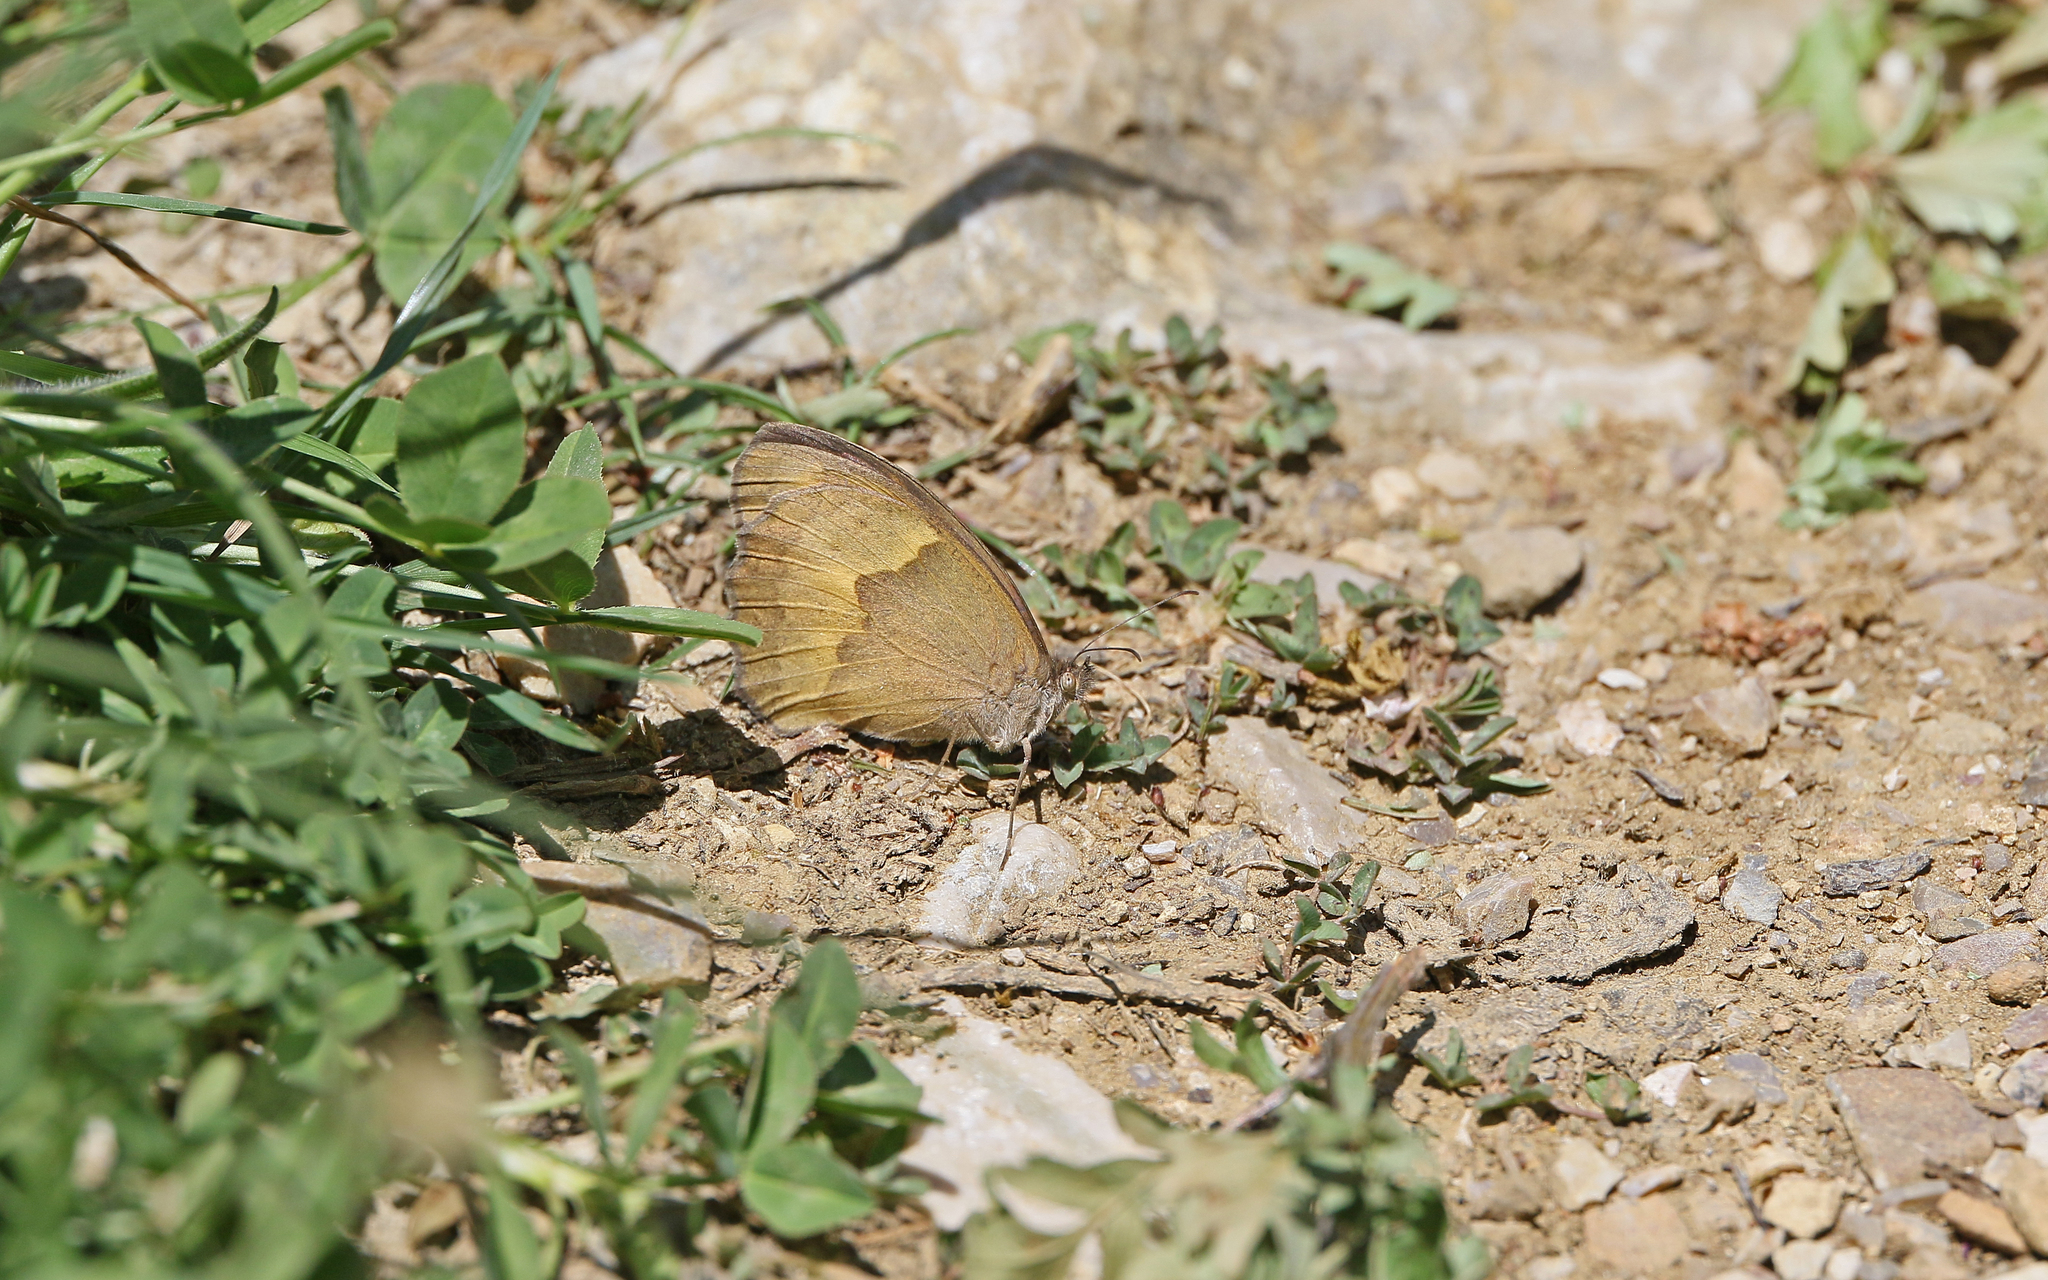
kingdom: Animalia
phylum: Arthropoda
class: Insecta
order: Lepidoptera
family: Nymphalidae
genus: Maniola
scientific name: Maniola jurtina
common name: Meadow brown
